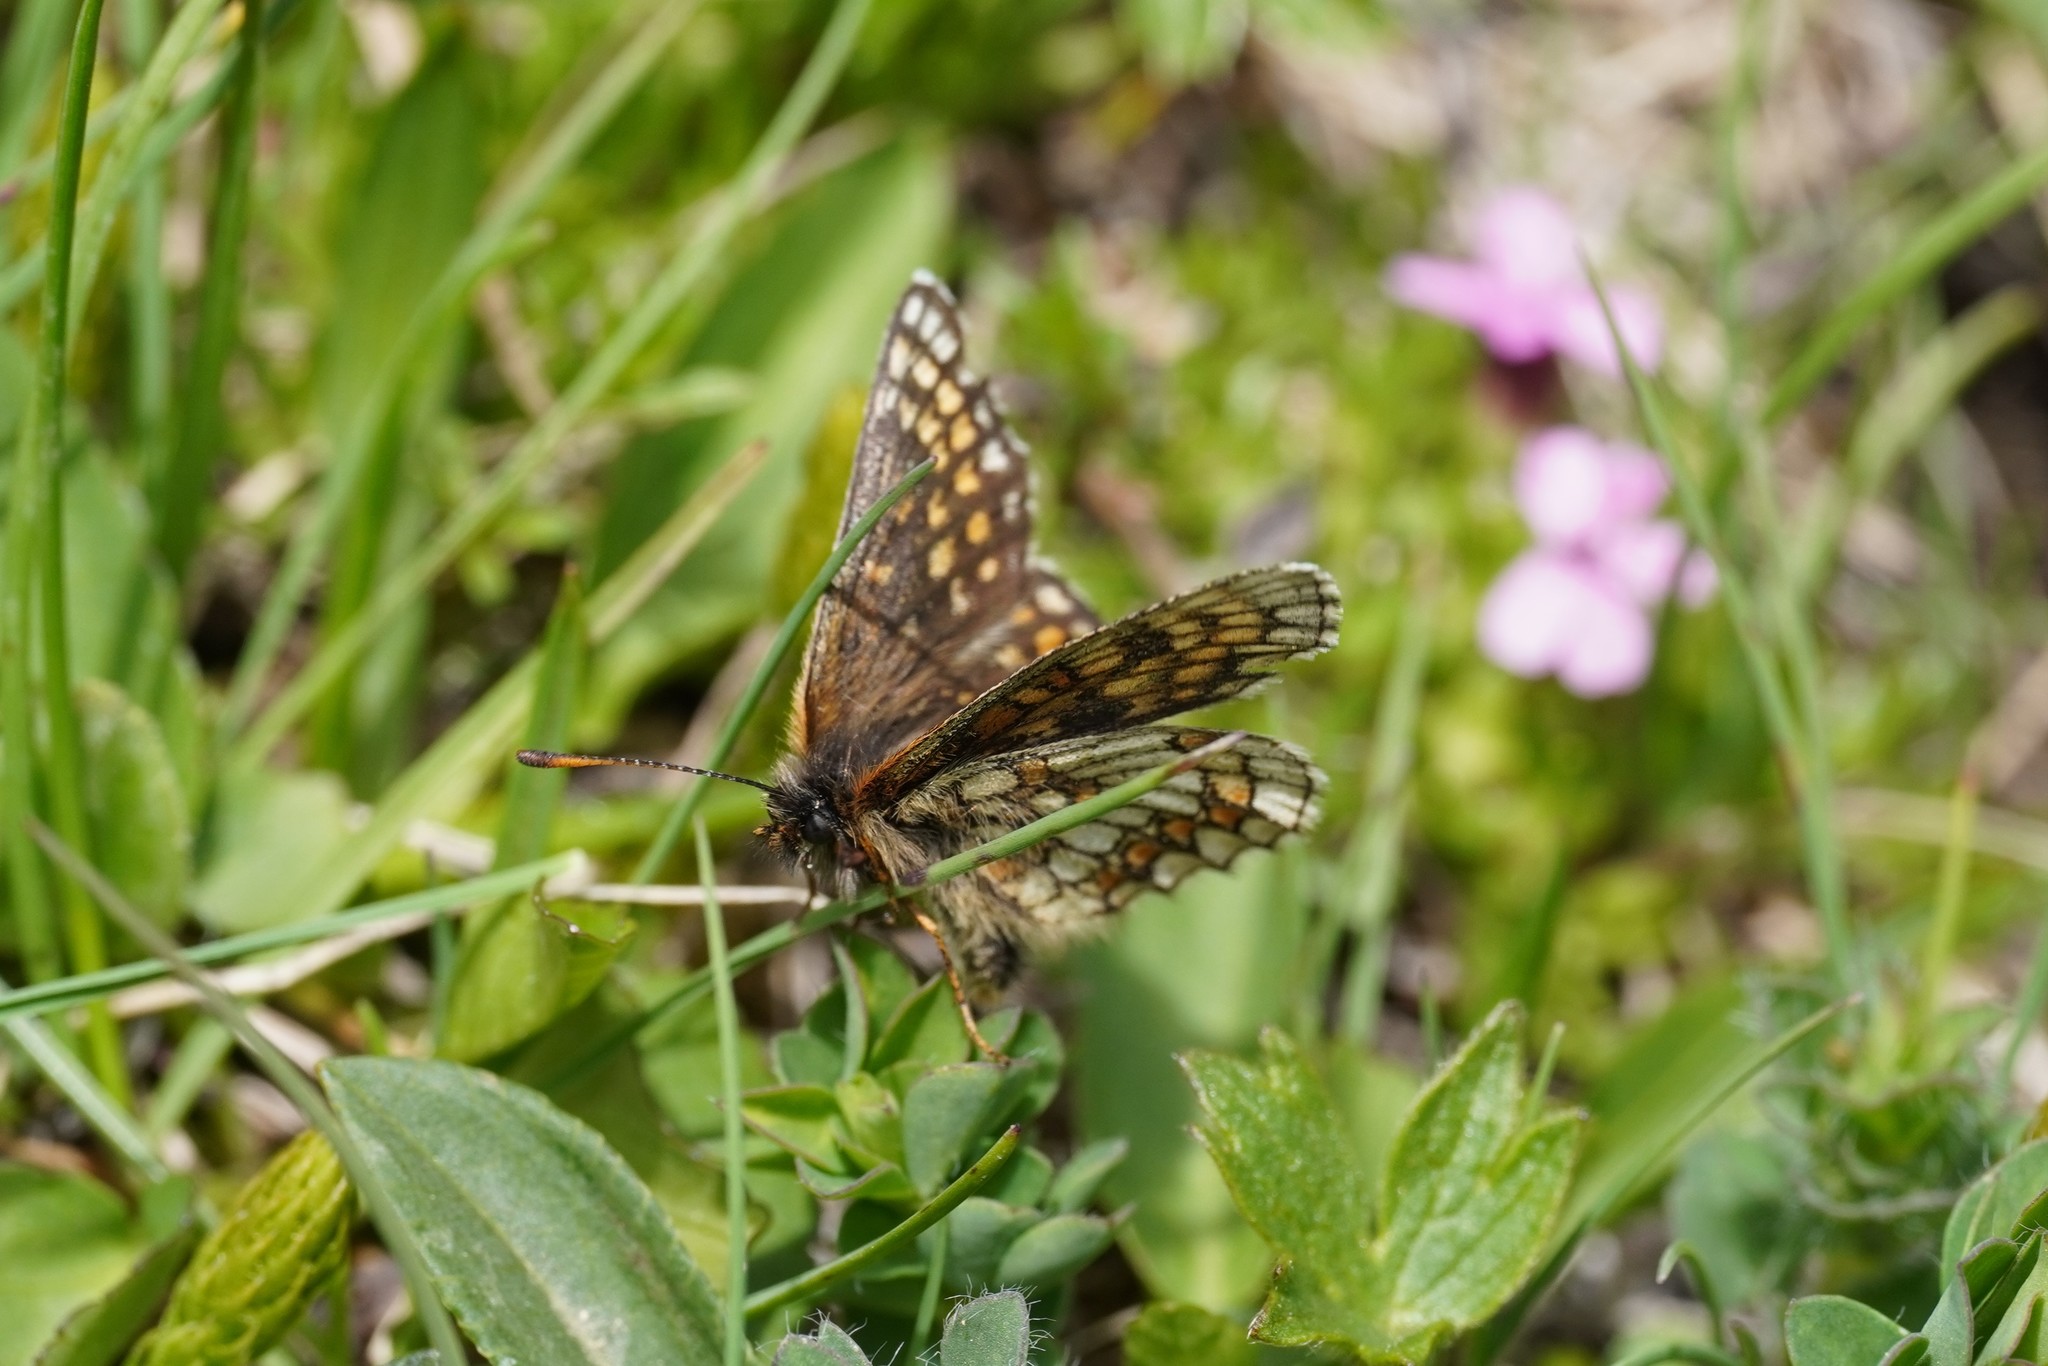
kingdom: Animalia
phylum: Arthropoda
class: Insecta
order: Lepidoptera
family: Nymphalidae
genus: Mellicta
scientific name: Mellicta asteria
